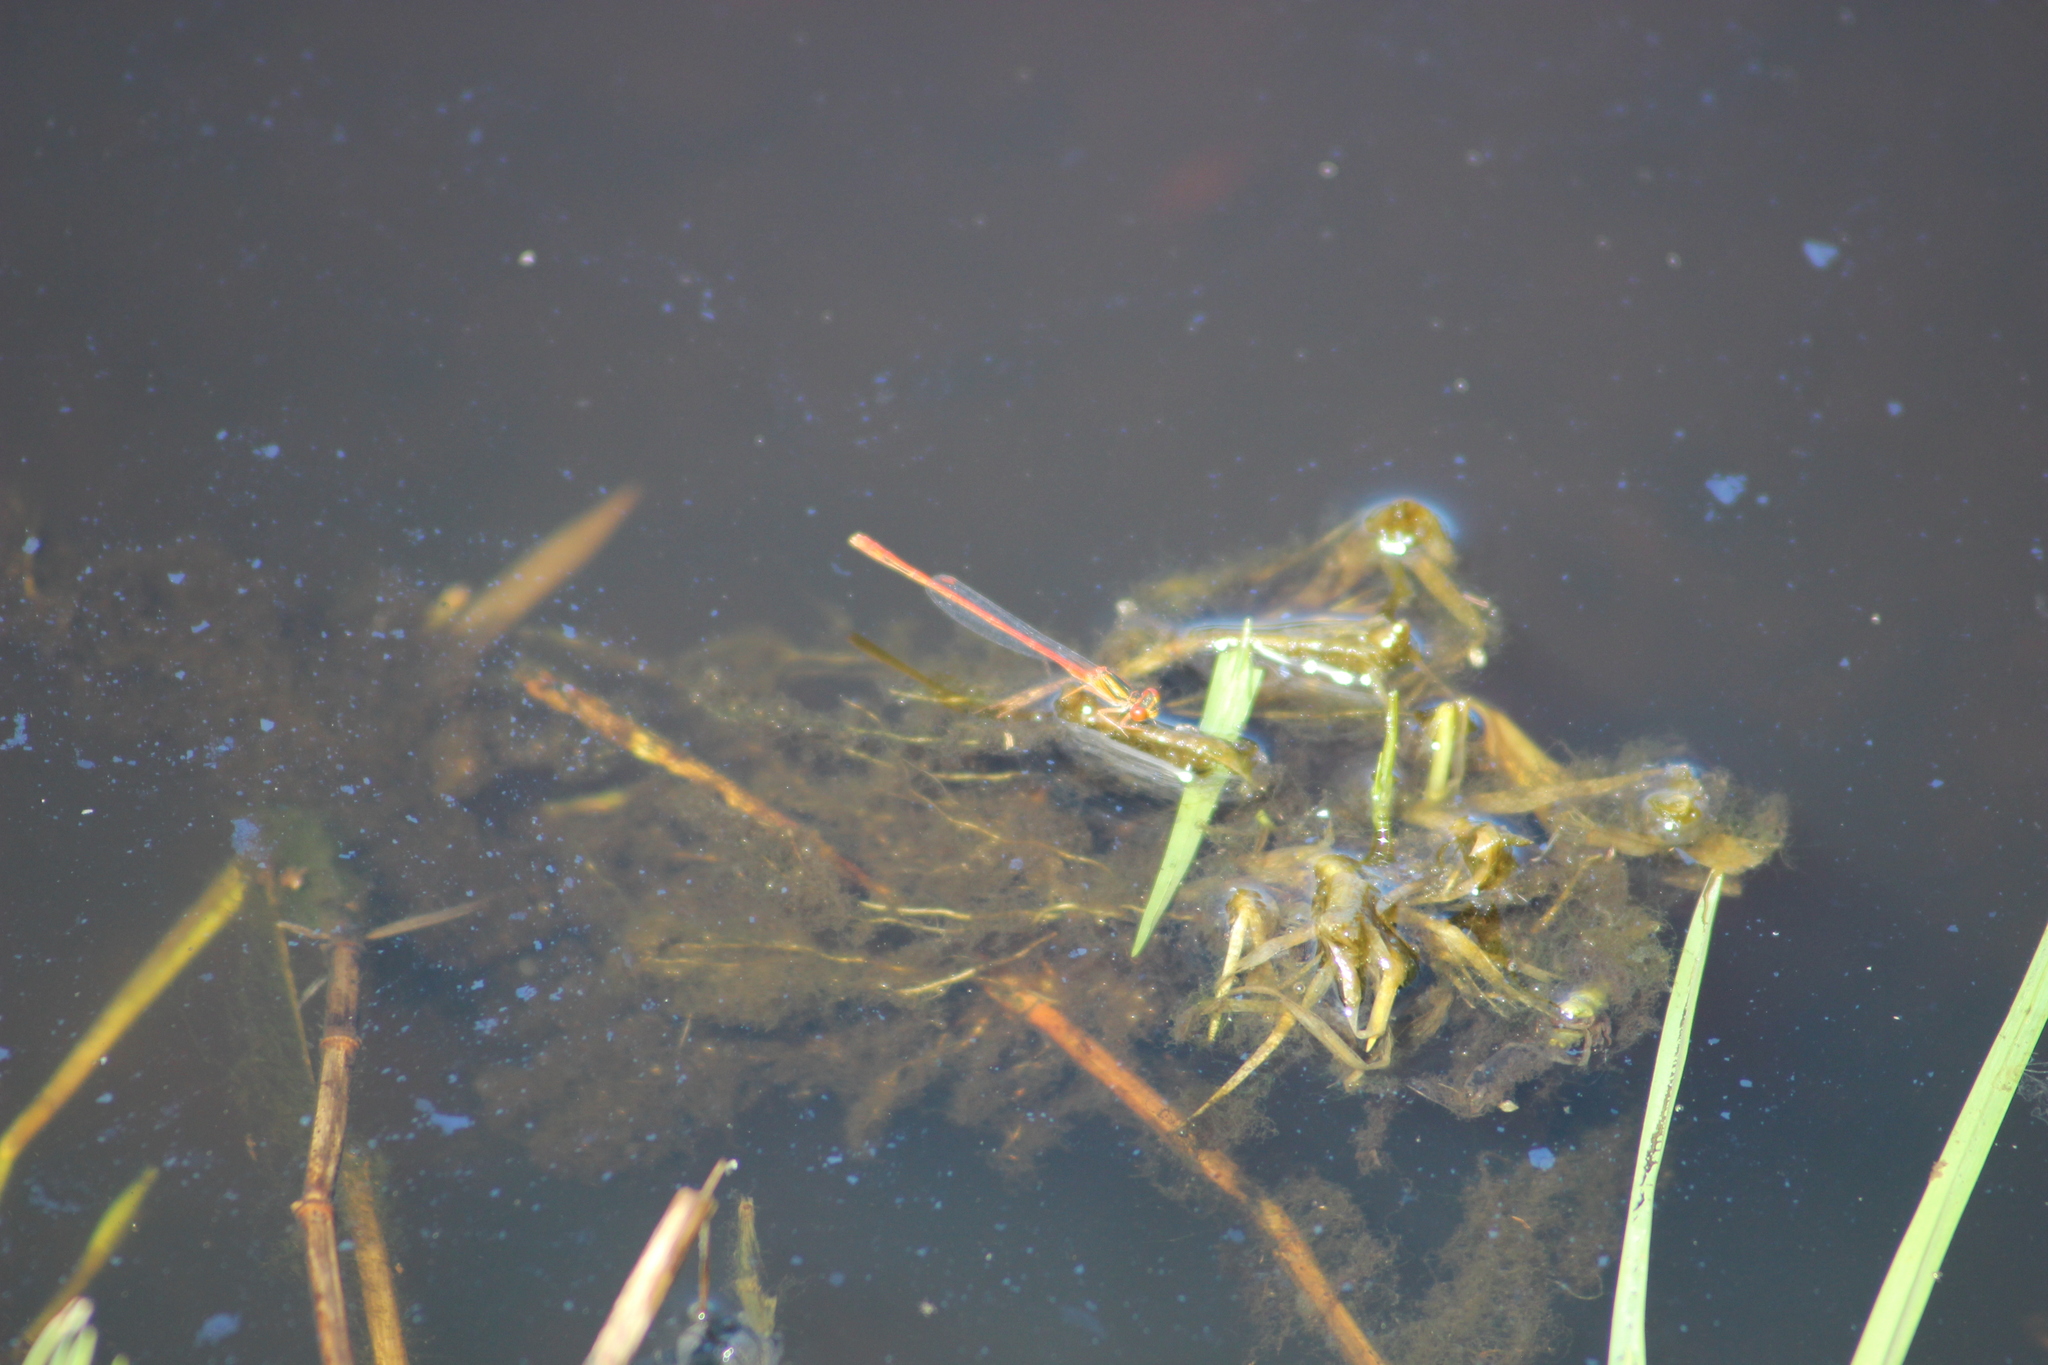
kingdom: Animalia
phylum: Arthropoda
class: Insecta
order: Odonata
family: Coenagrionidae
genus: Xanthocnemis
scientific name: Xanthocnemis zealandica
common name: Common redcoat damselfly
